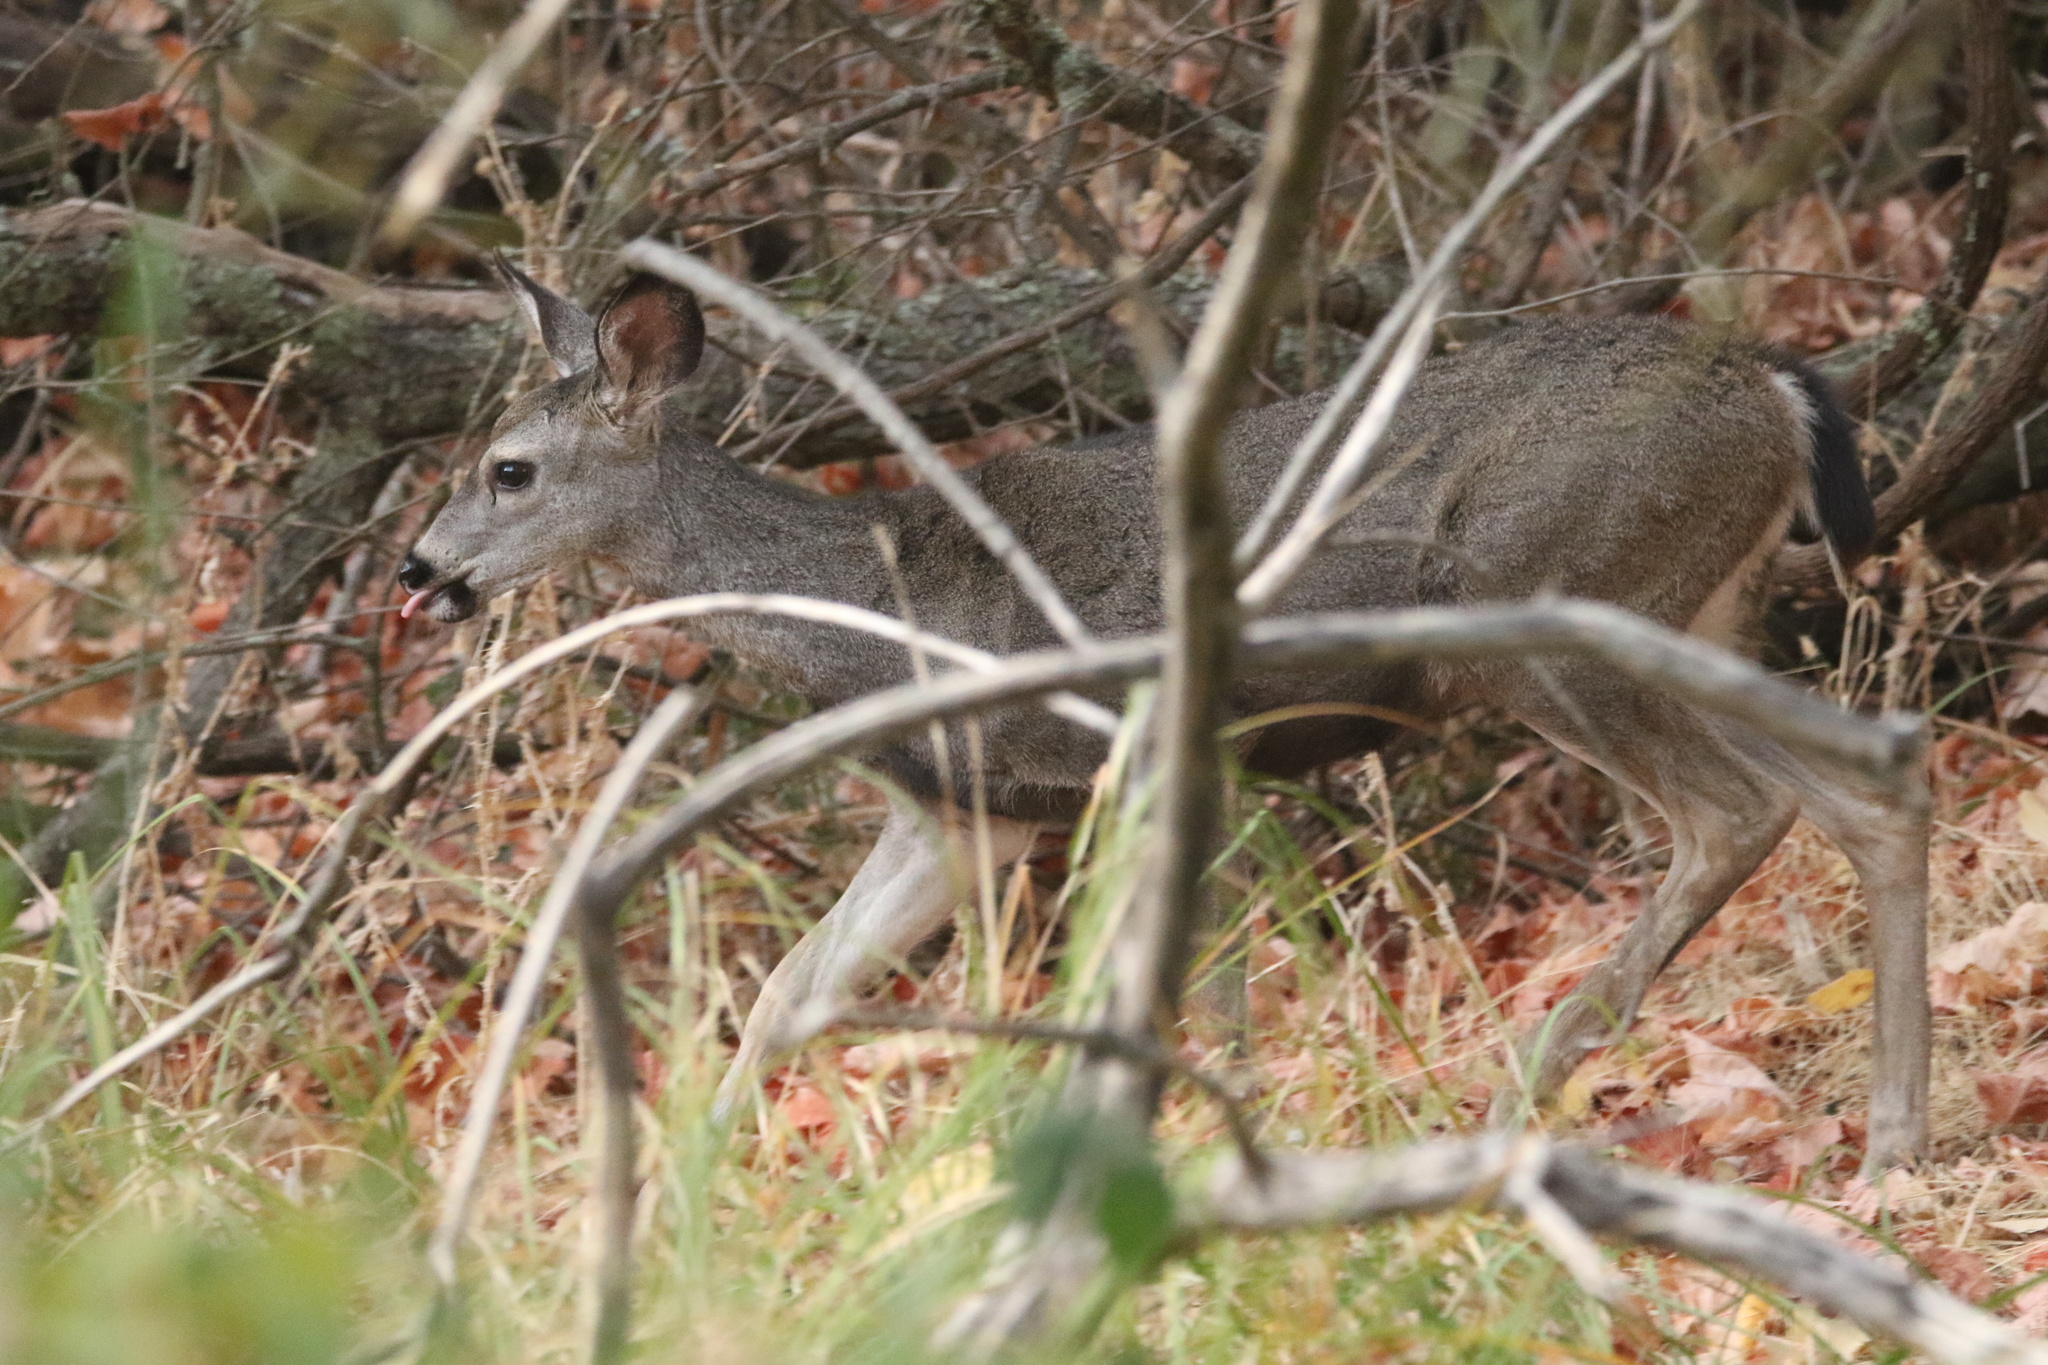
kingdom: Animalia
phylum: Chordata
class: Mammalia
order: Artiodactyla
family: Cervidae
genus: Odocoileus
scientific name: Odocoileus hemionus
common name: Mule deer
